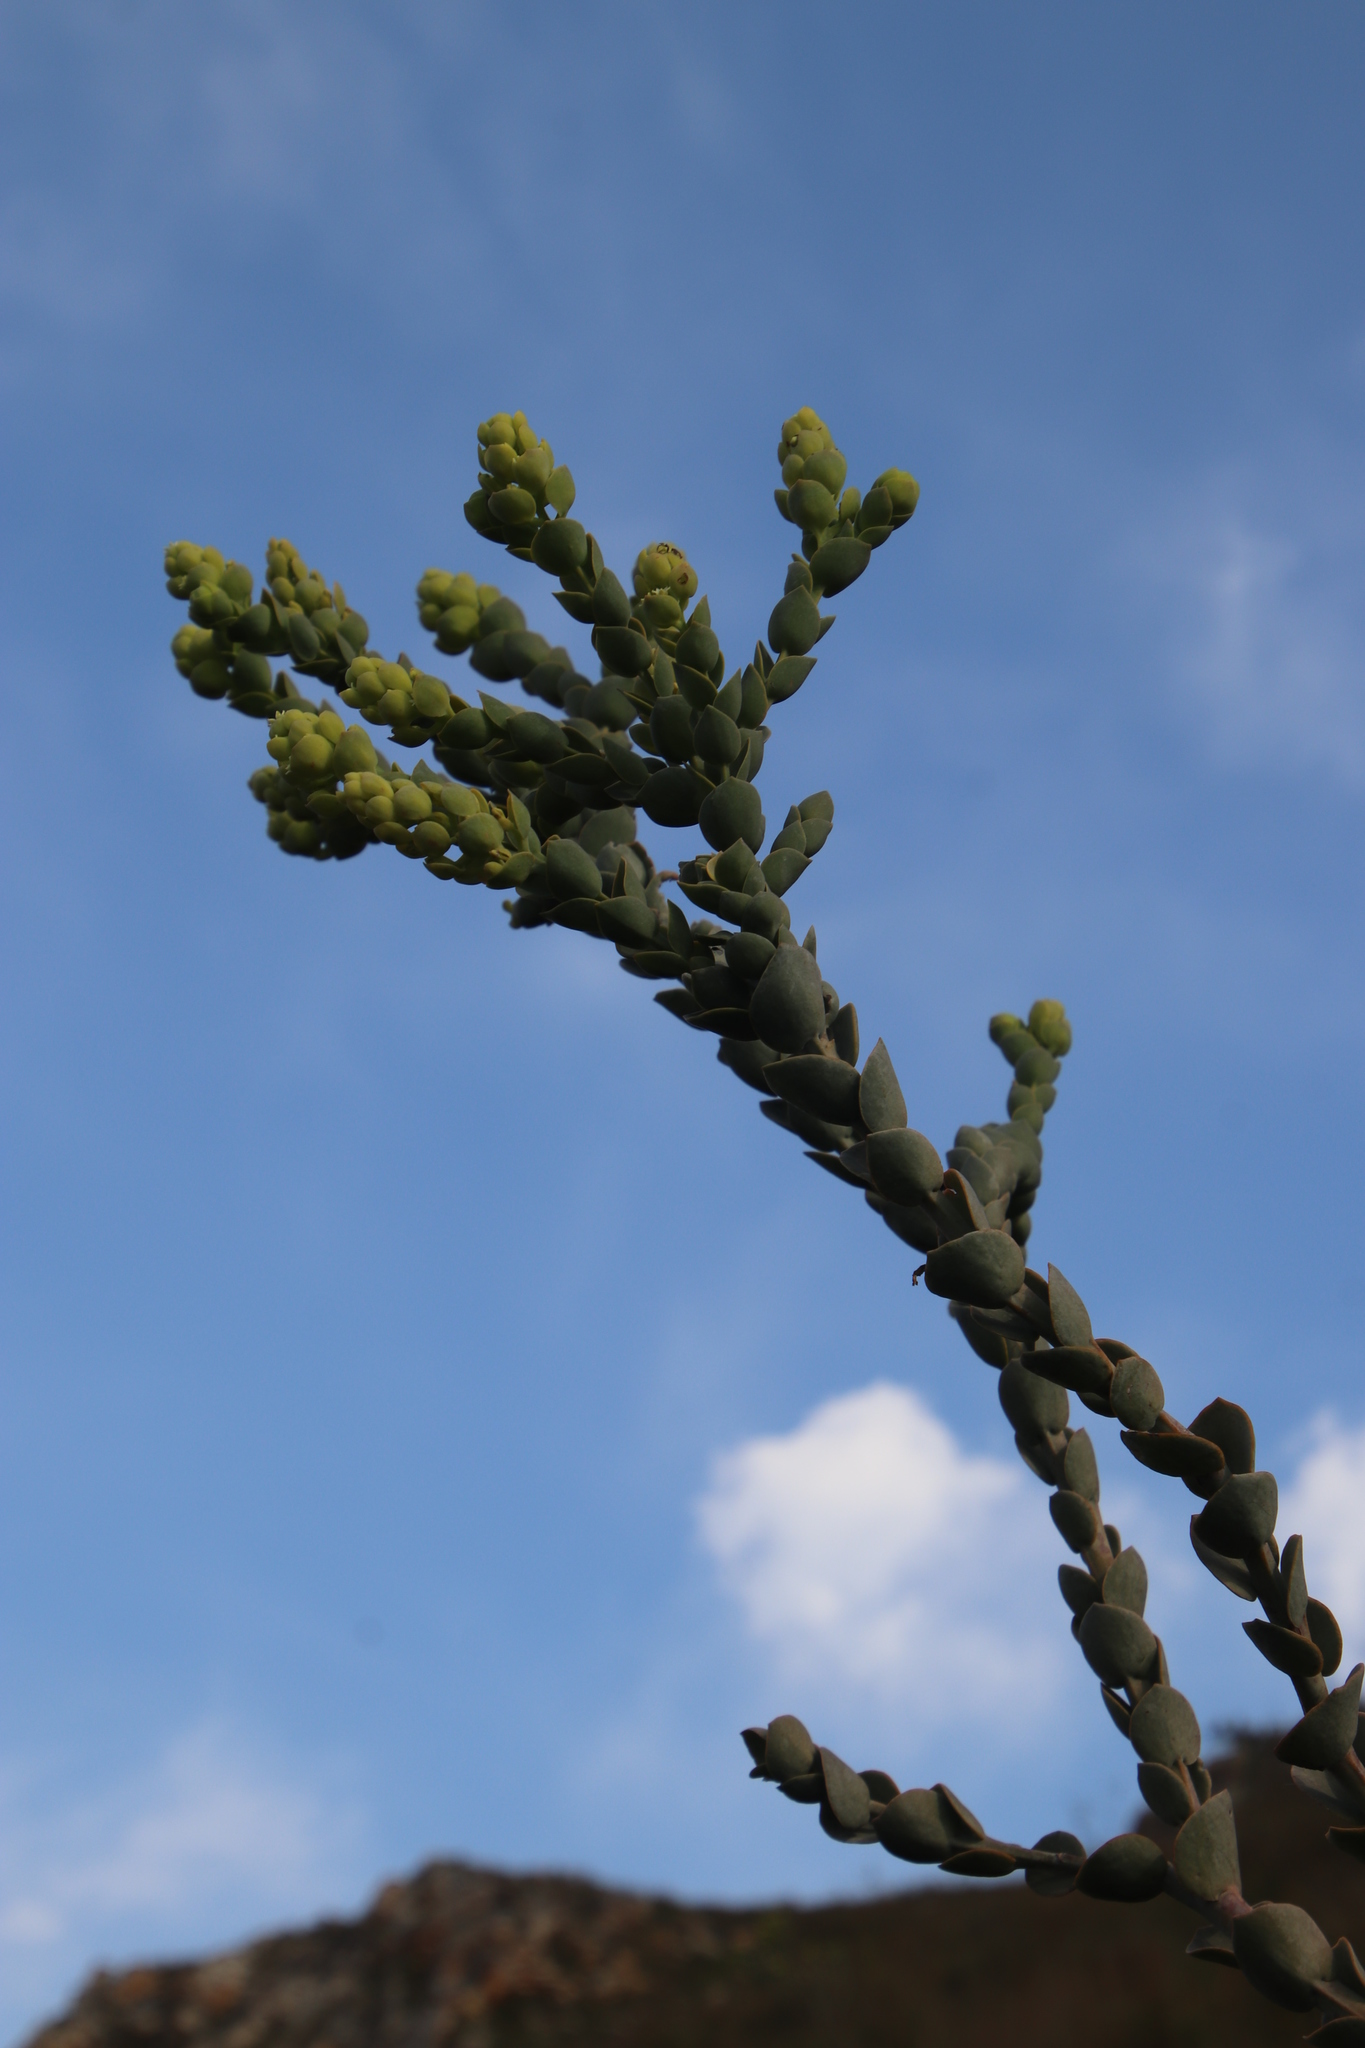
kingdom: Plantae
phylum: Tracheophyta
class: Magnoliopsida
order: Santalales
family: Thesiaceae
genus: Thesium
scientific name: Thesium euphorbioides
